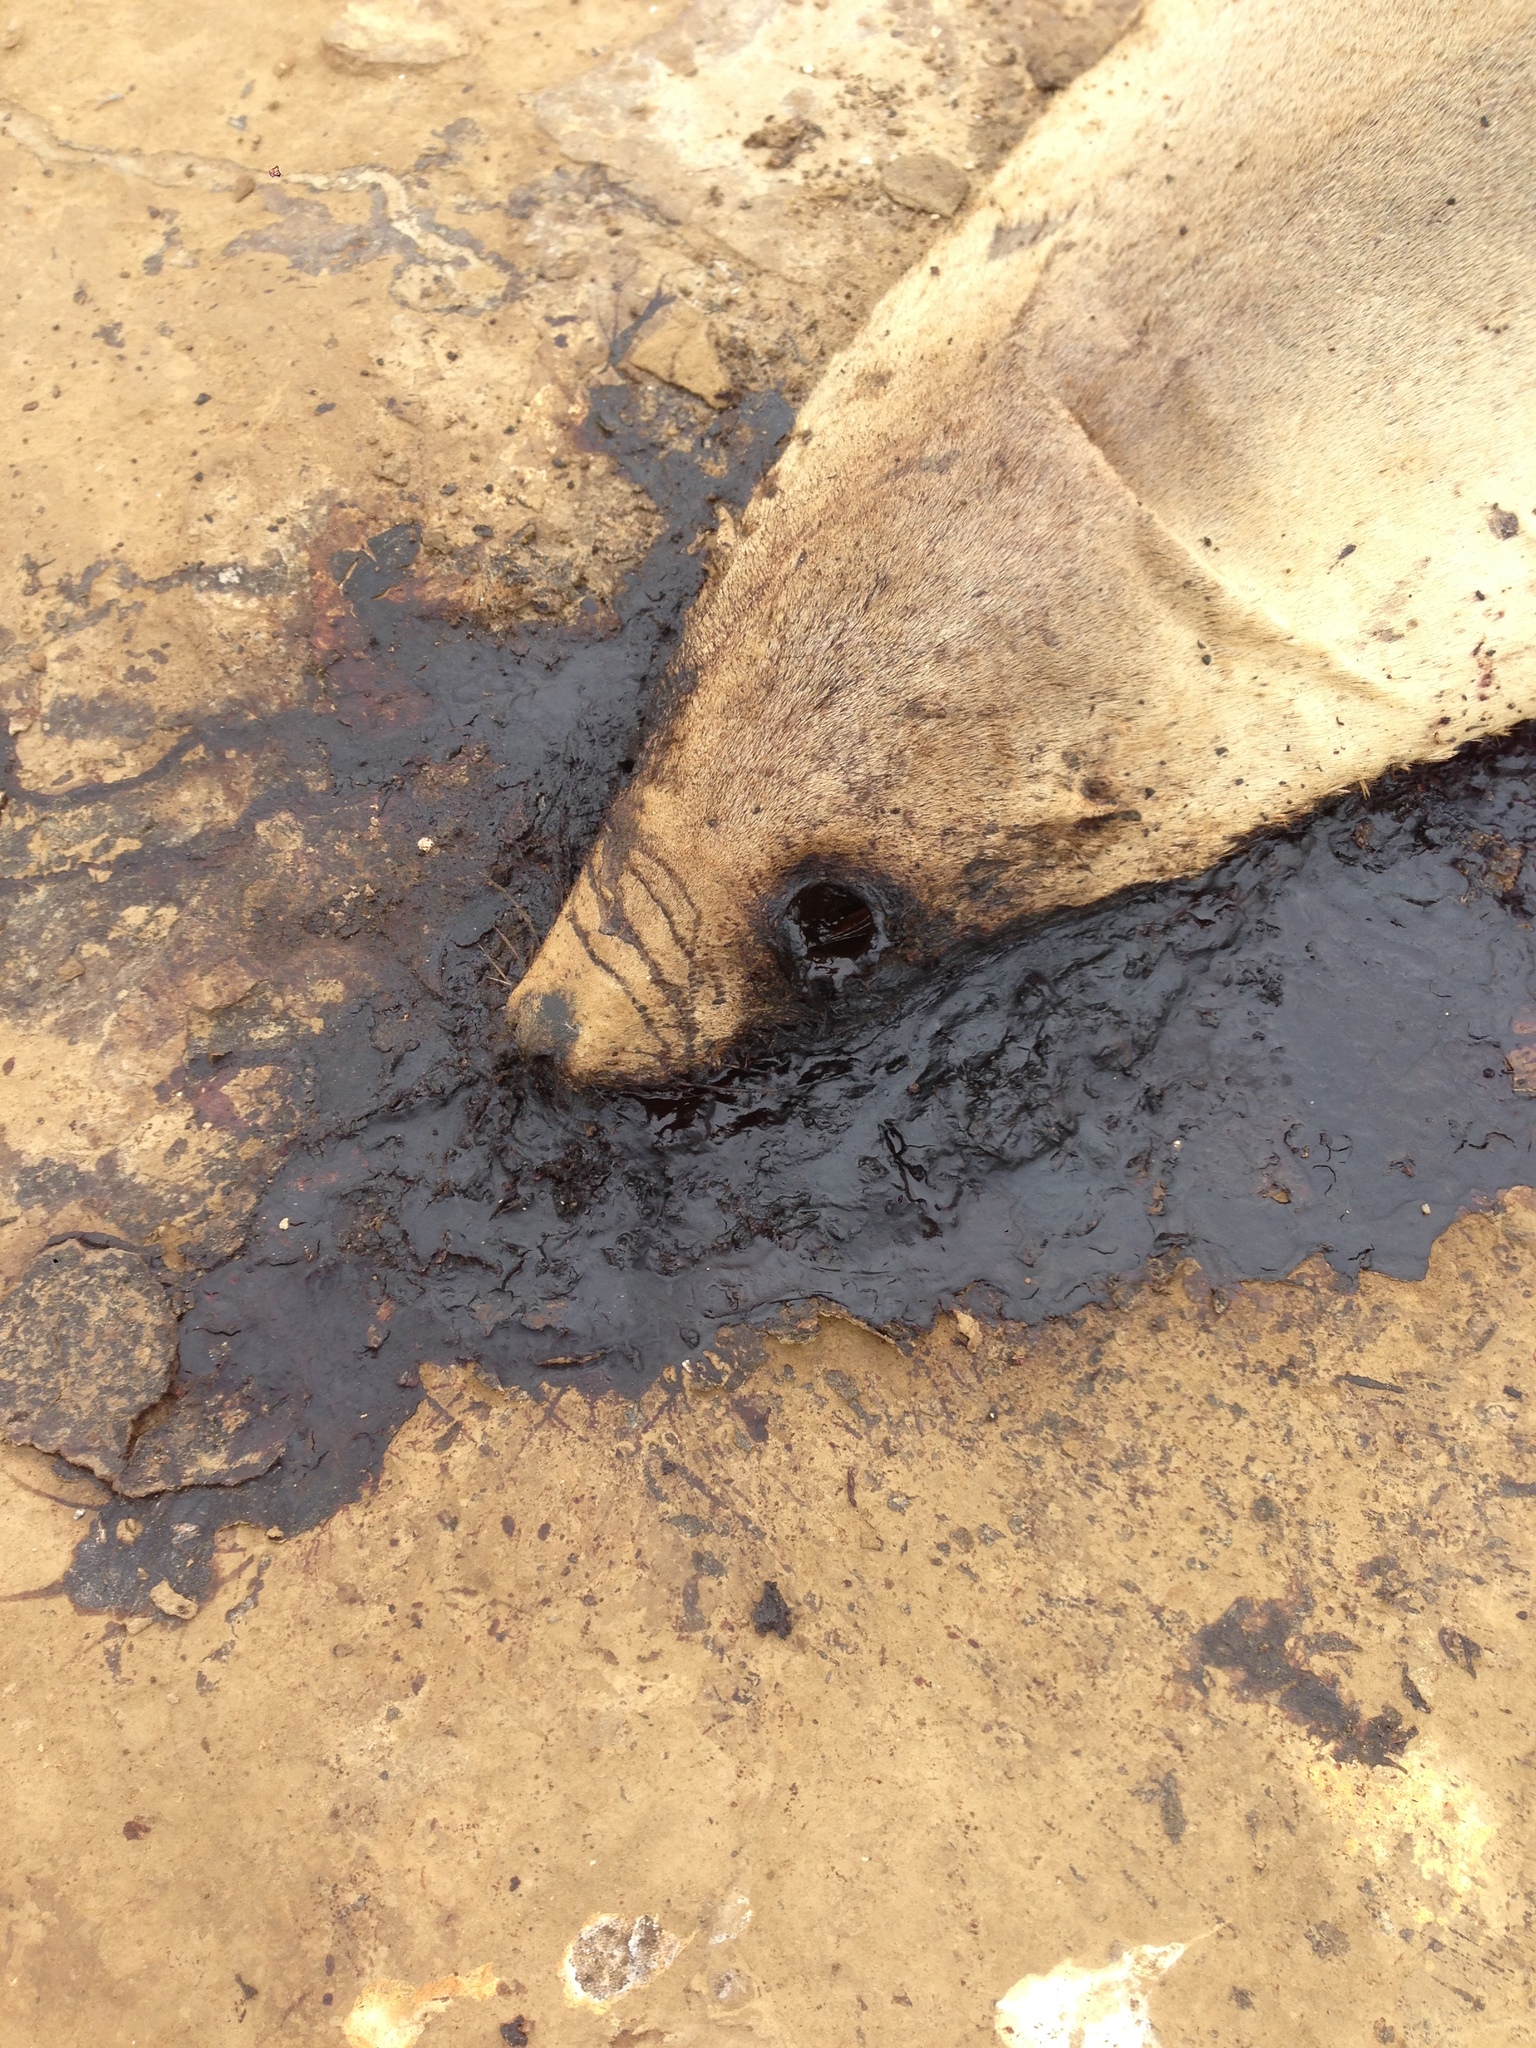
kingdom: Animalia
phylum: Chordata
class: Mammalia
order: Carnivora
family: Otariidae
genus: Zalophus
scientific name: Zalophus californianus
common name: California sea lion
